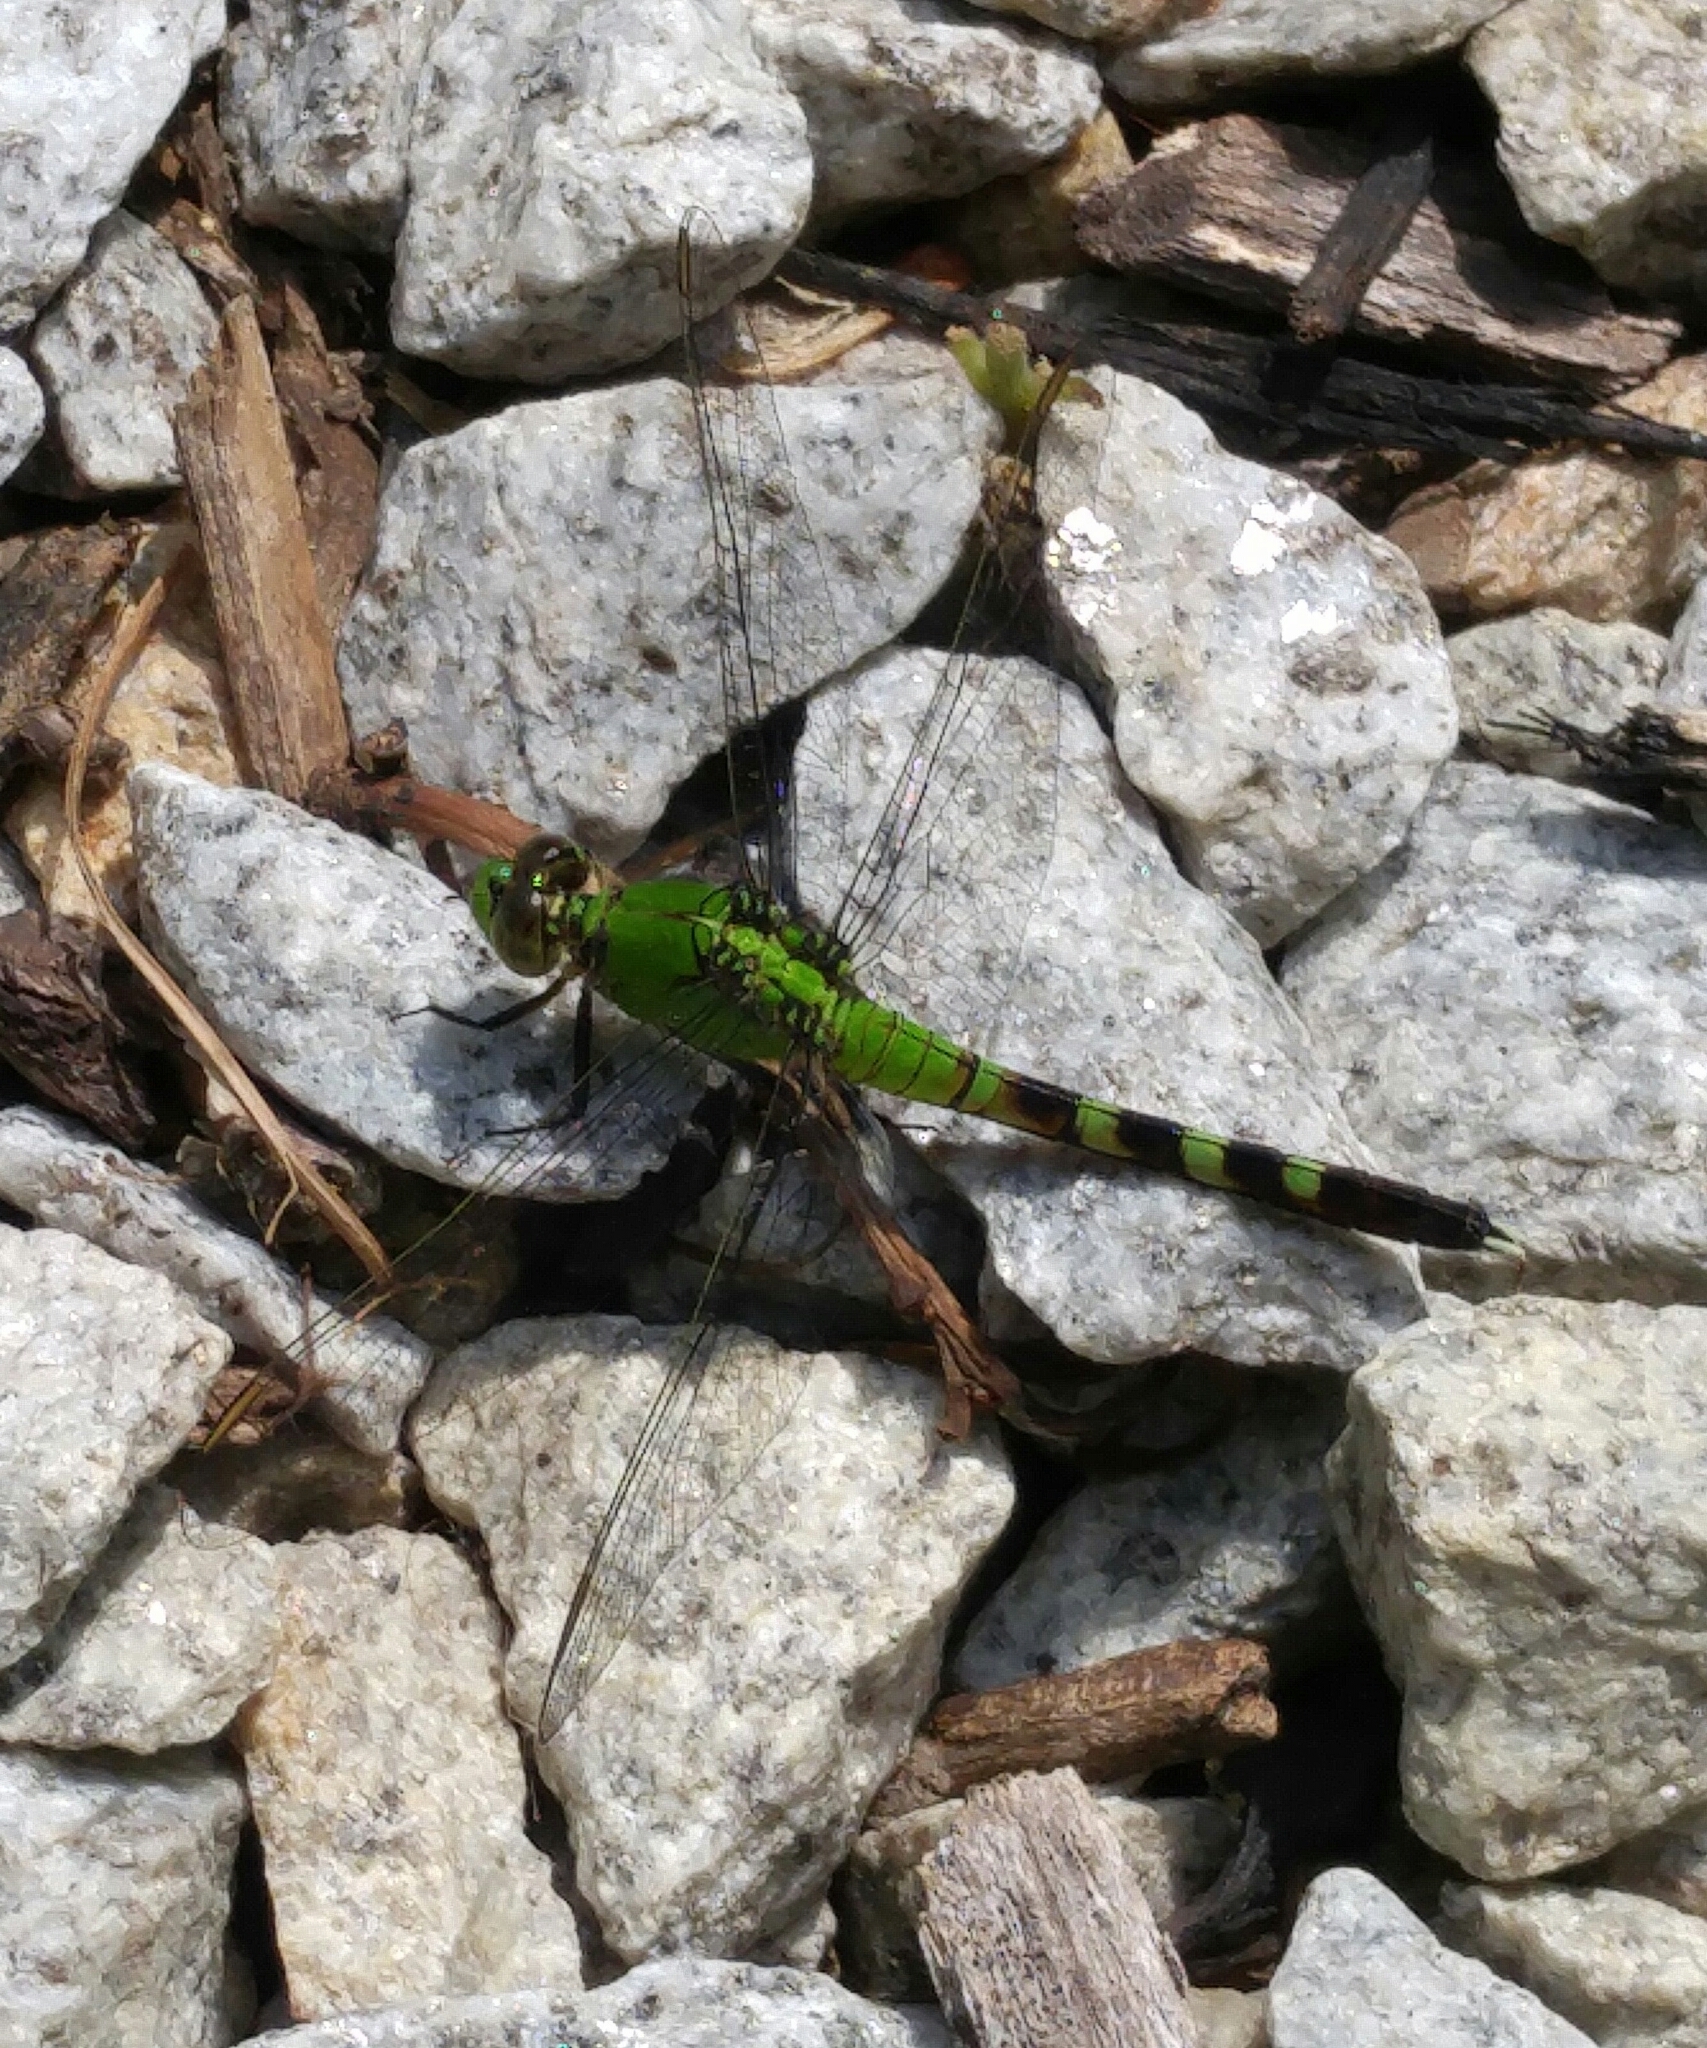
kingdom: Animalia
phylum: Arthropoda
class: Insecta
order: Odonata
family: Libellulidae
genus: Erythemis
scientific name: Erythemis simplicicollis
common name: Eastern pondhawk
